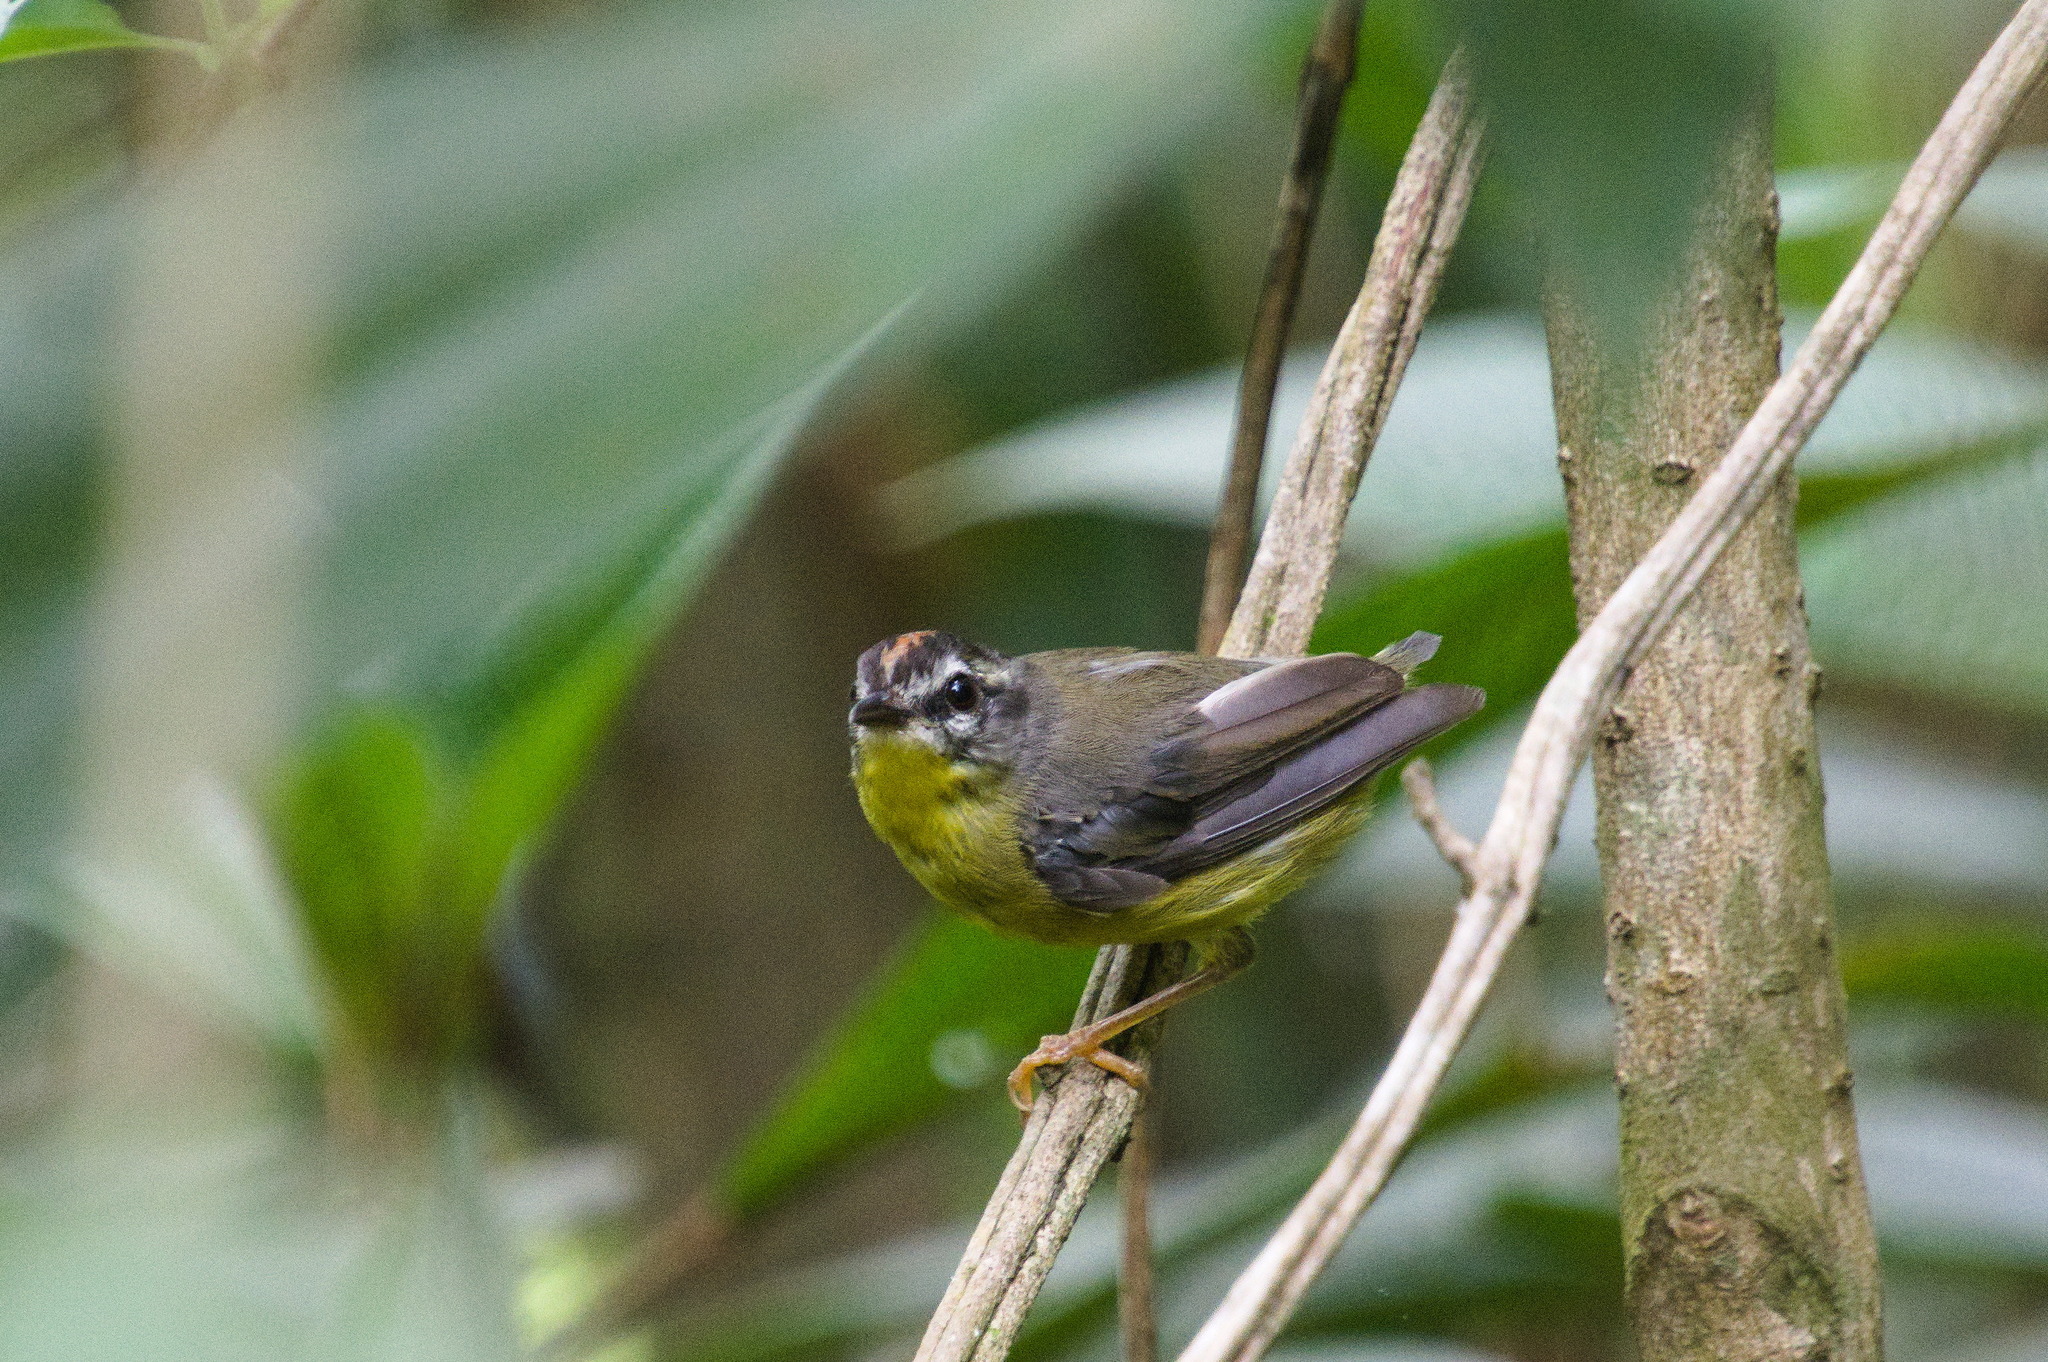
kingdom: Animalia
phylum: Chordata
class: Aves
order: Passeriformes
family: Parulidae
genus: Basileuterus
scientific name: Basileuterus culicivorus
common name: Golden-crowned warbler
